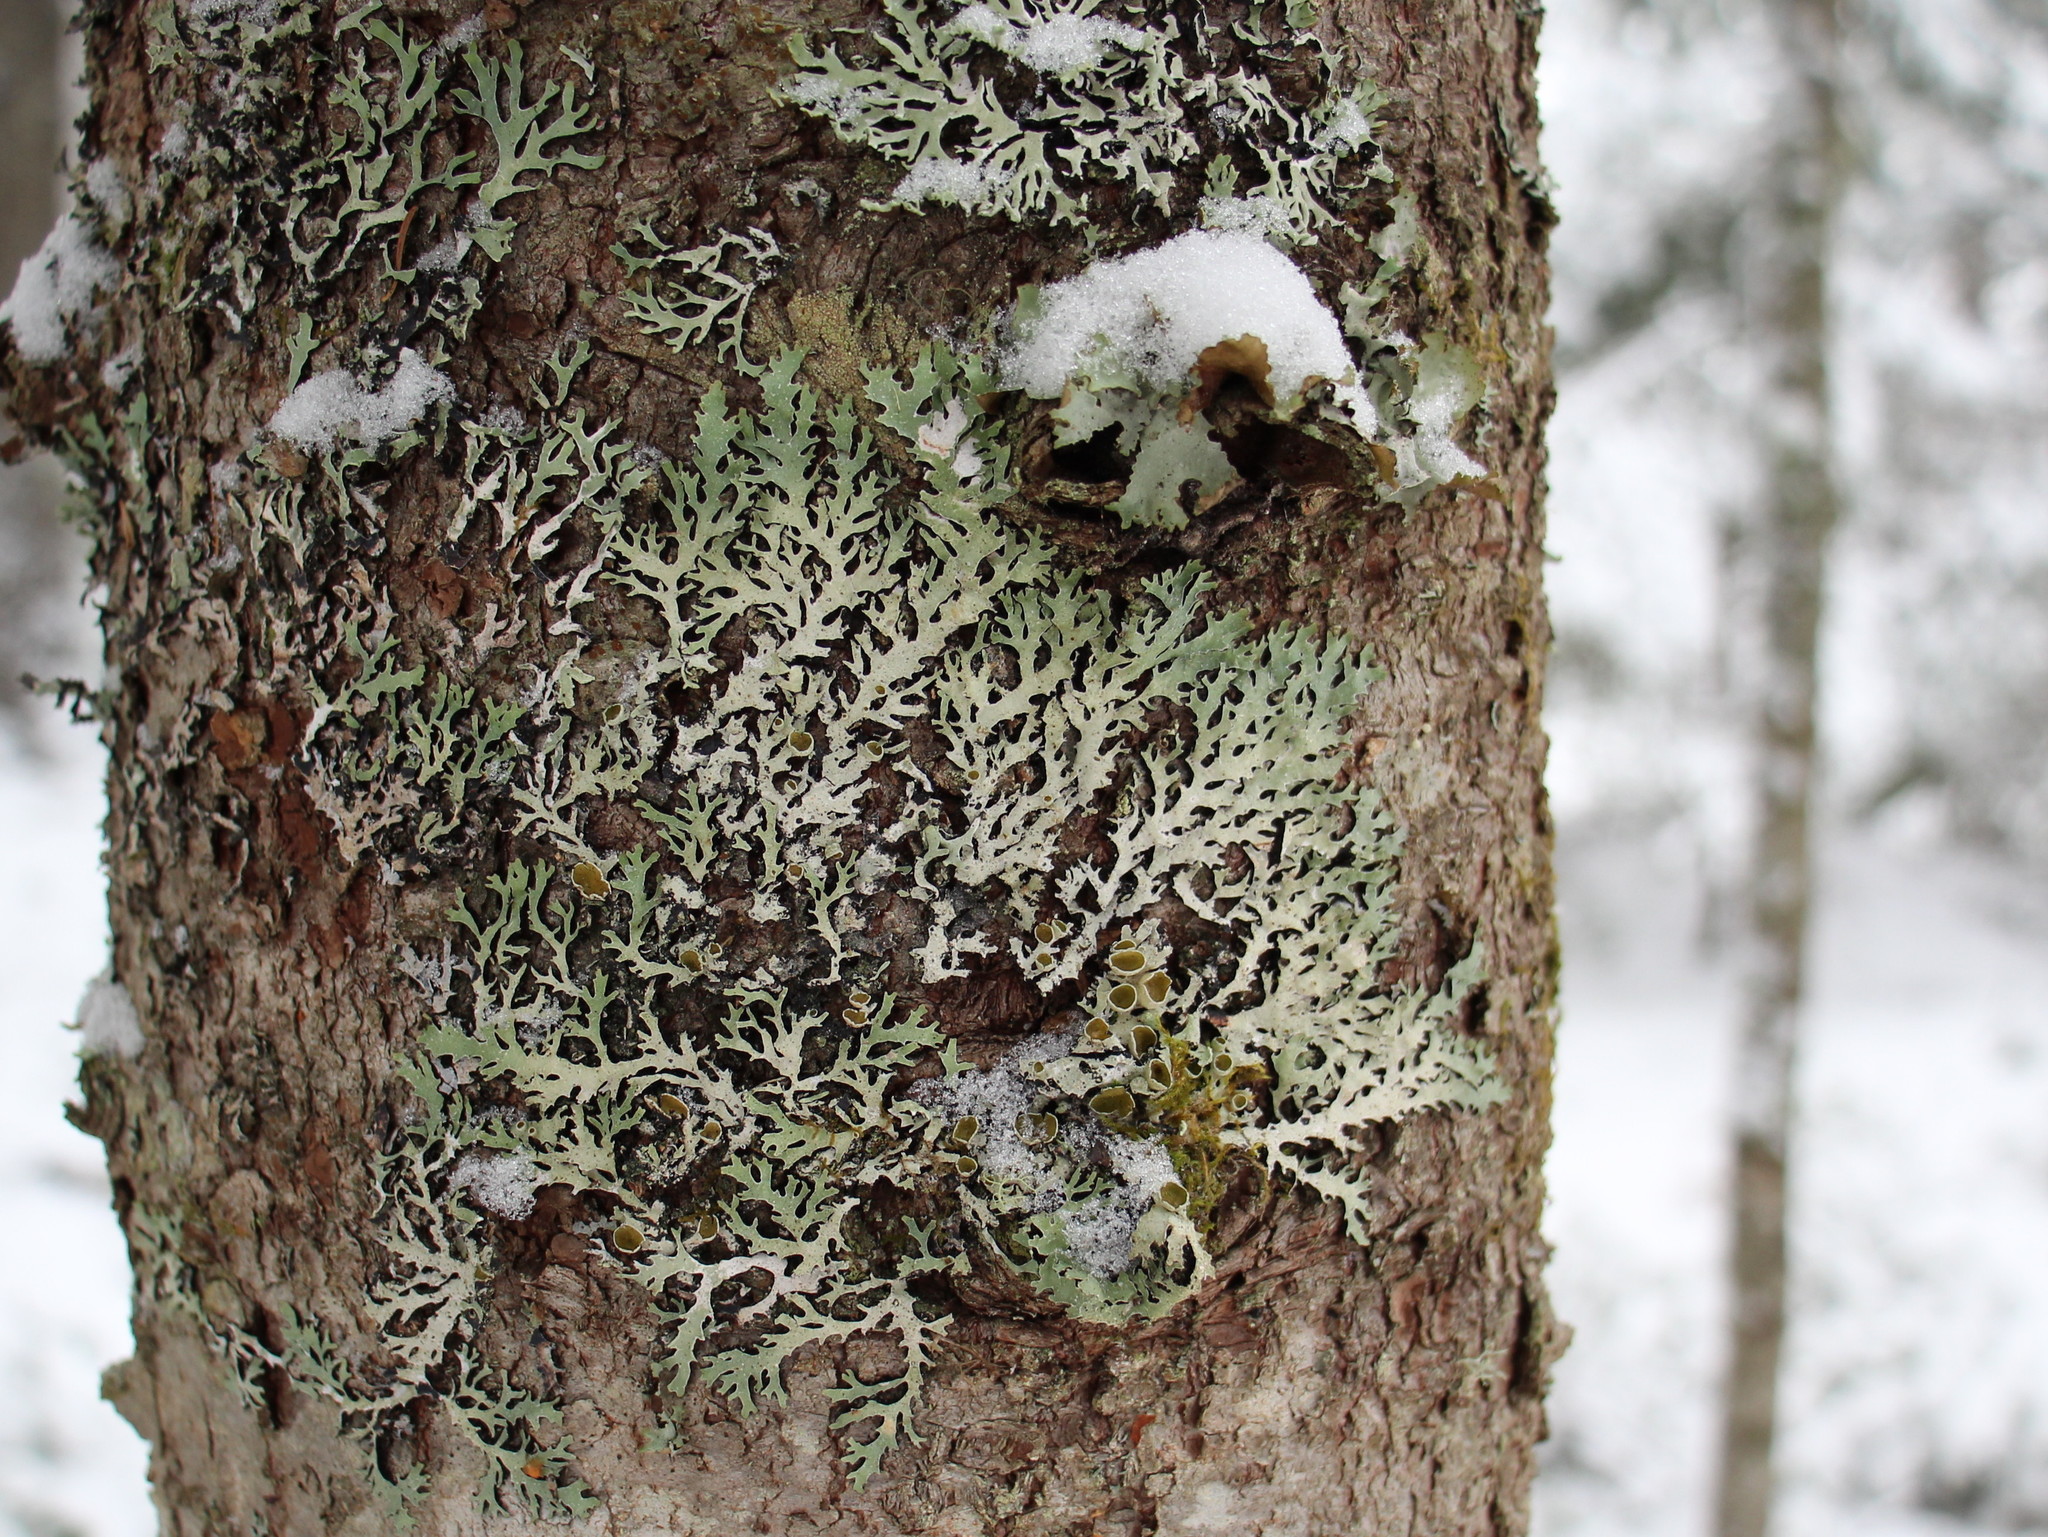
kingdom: Fungi
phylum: Ascomycota
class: Lecanoromycetes
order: Lecanorales
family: Parmeliaceae
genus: Parmelia
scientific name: Parmelia squarrosa
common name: Bottle brush shield lichen
